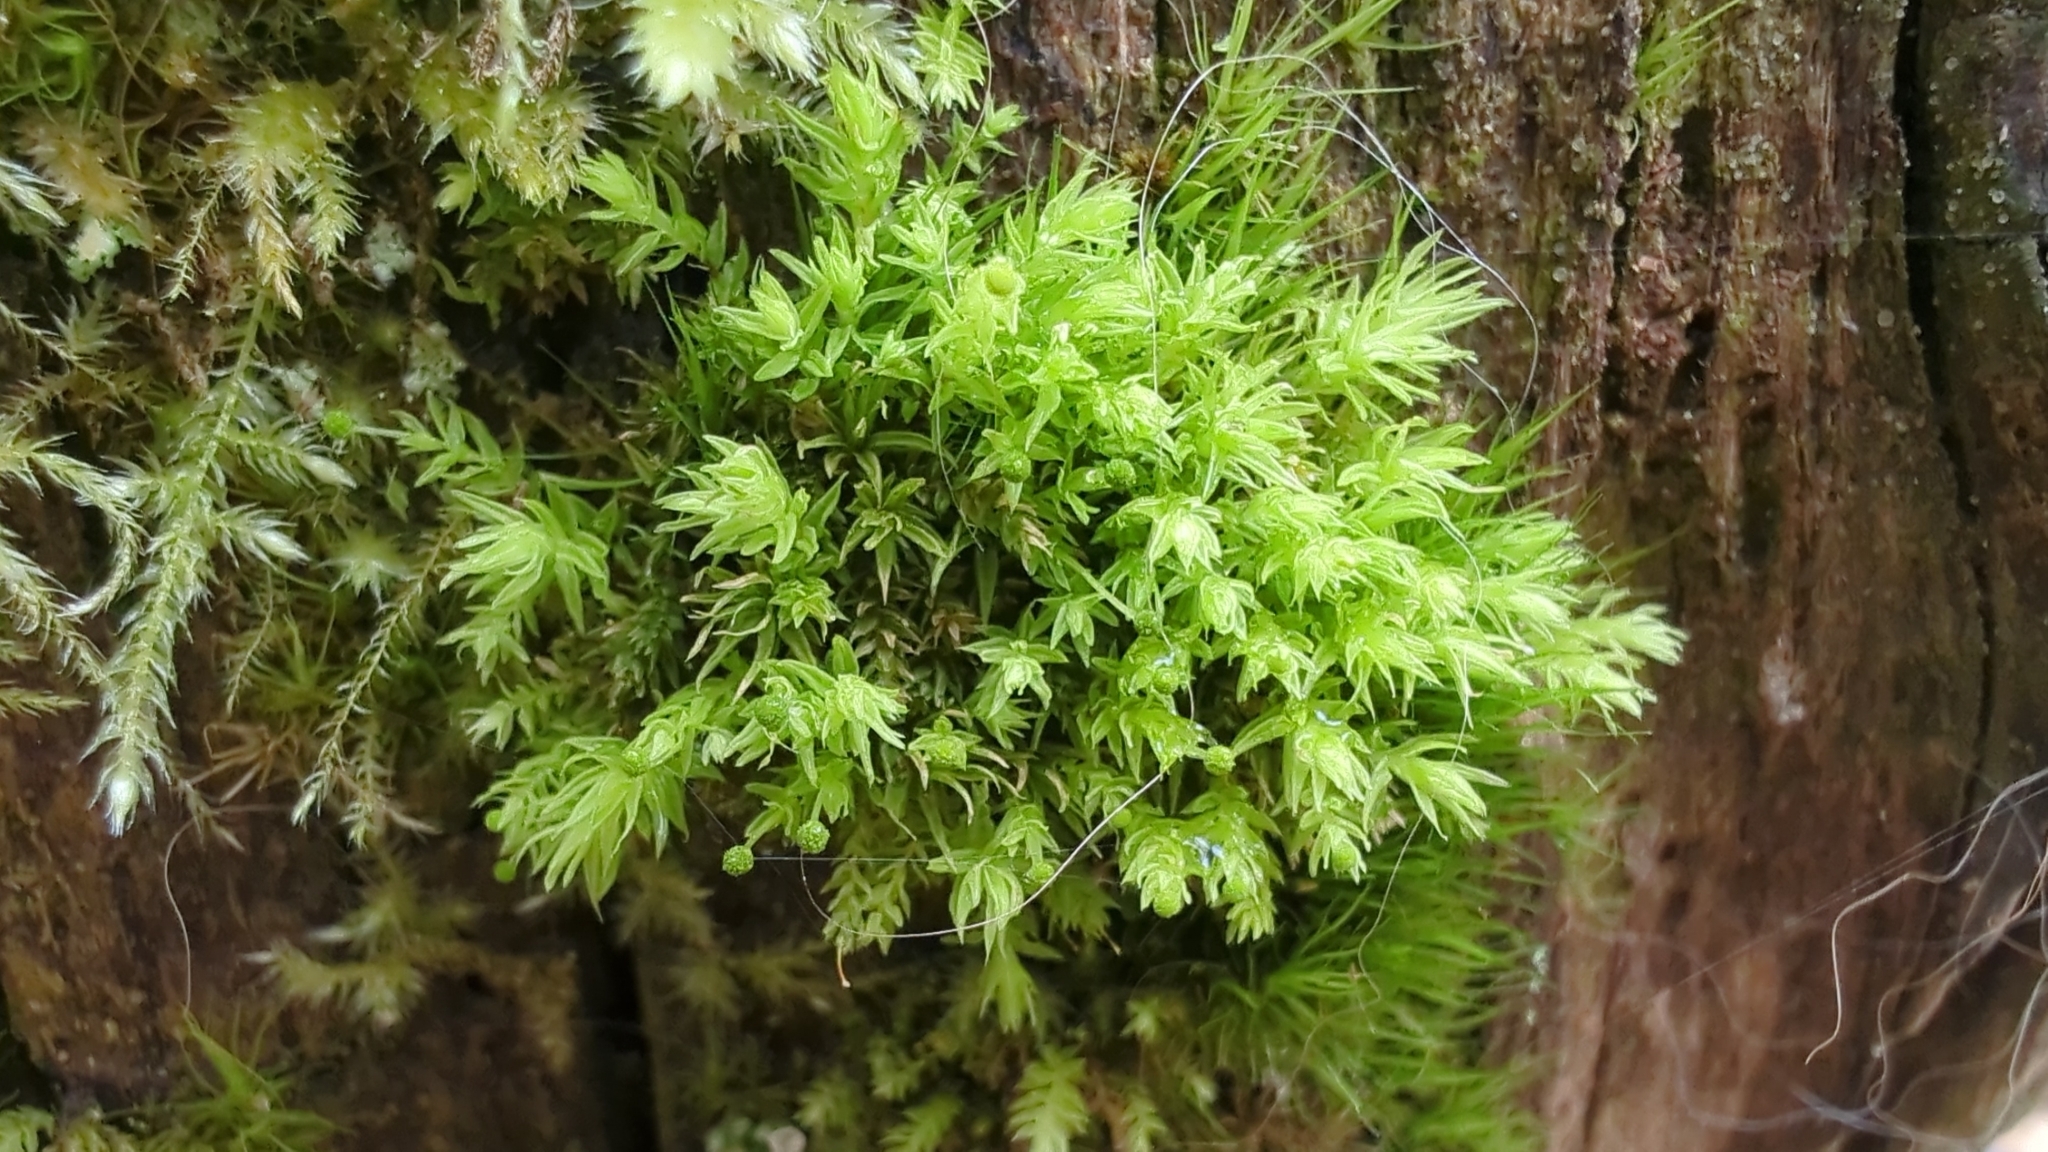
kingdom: Plantae
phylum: Bryophyta
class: Bryopsida
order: Aulacomniales
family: Aulacomniaceae
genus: Aulacomnium
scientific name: Aulacomnium androgynum
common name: Little groove moss
